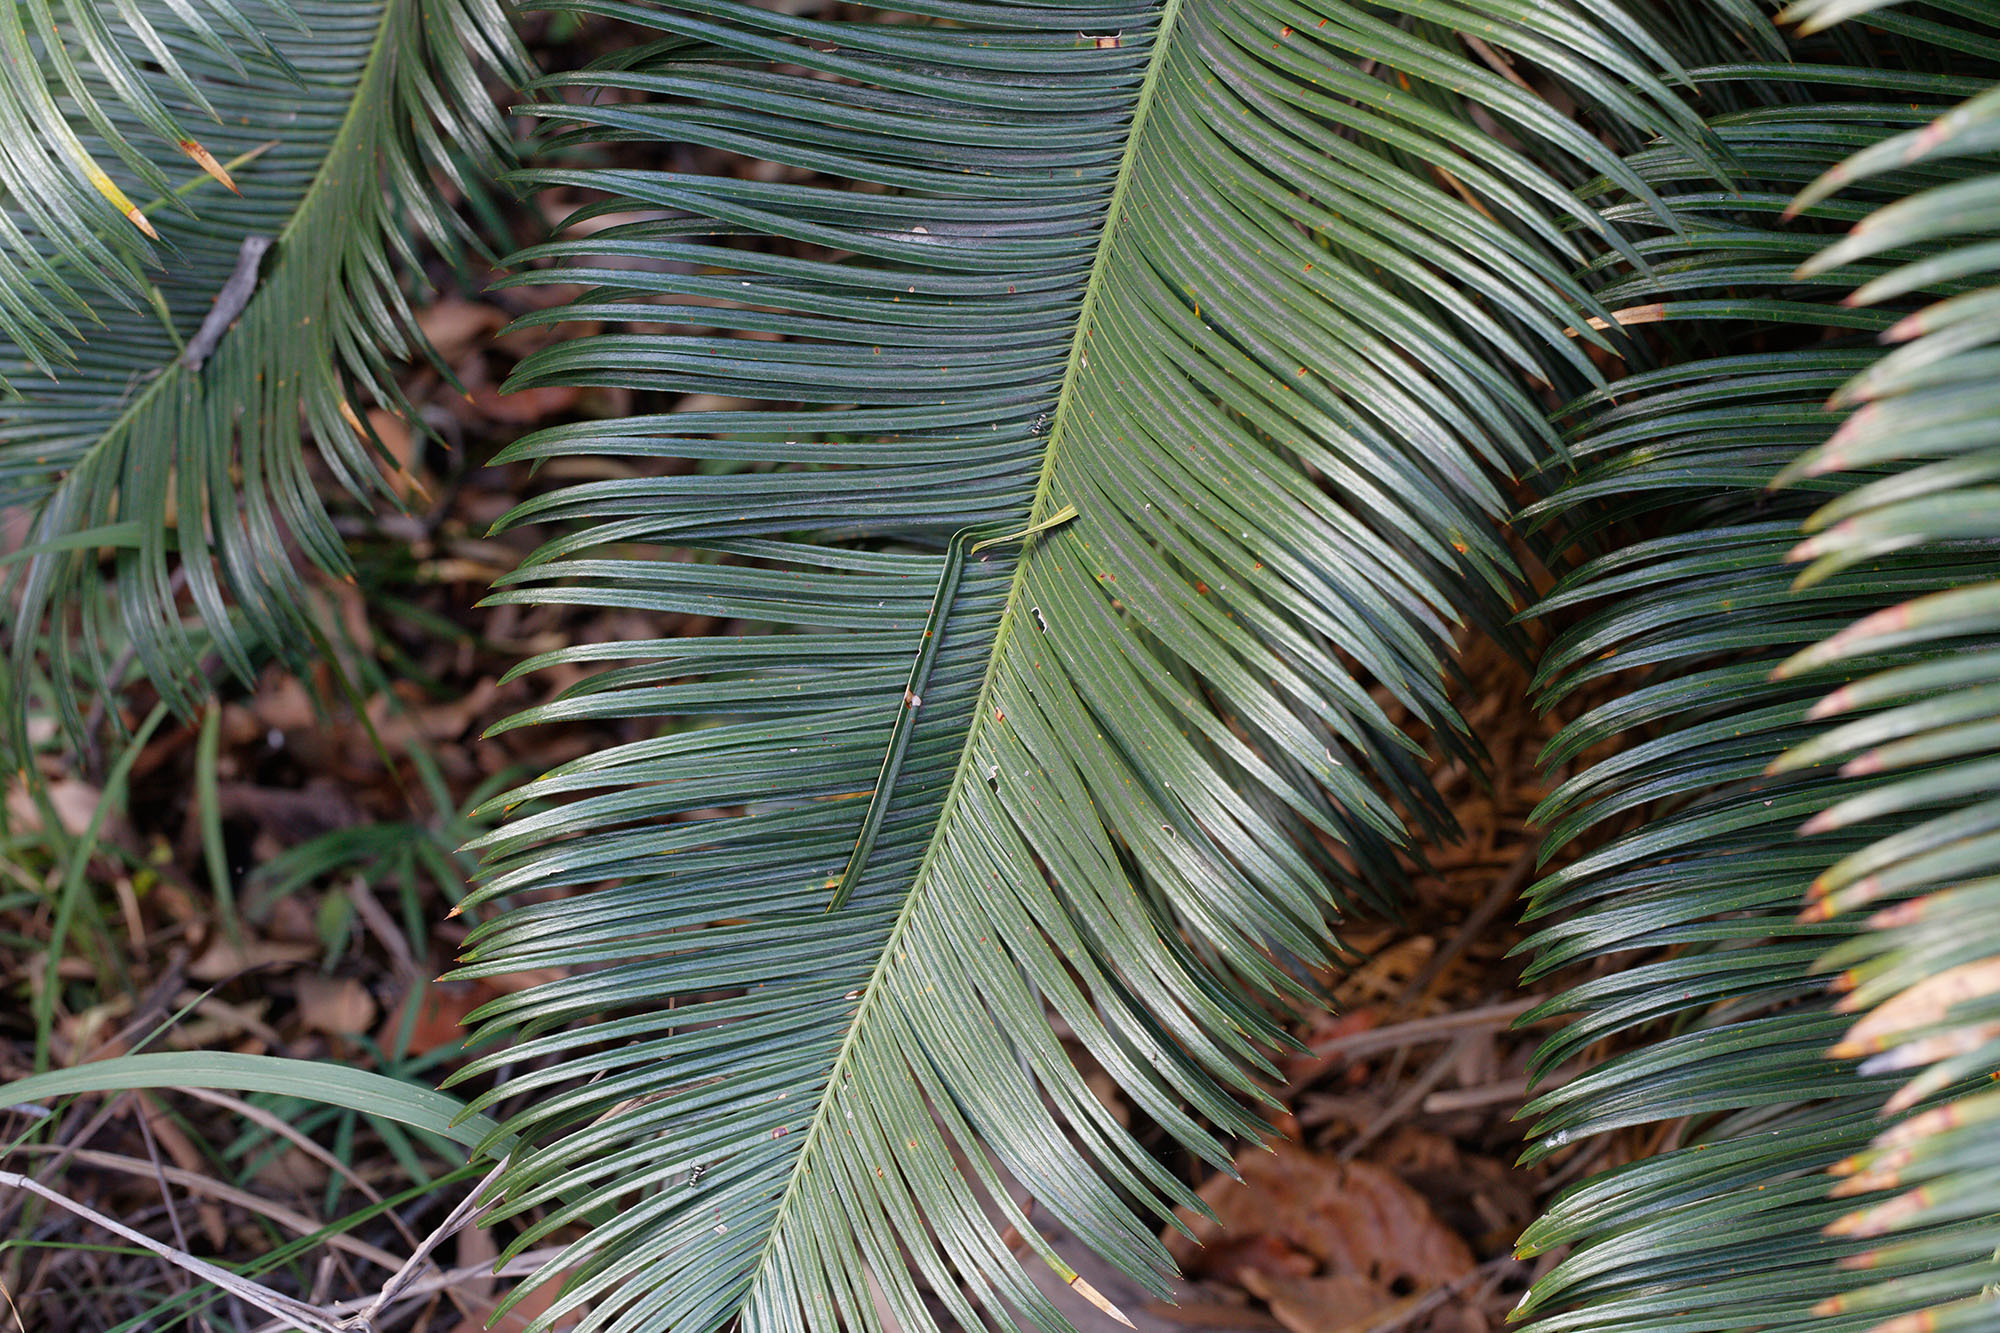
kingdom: Plantae
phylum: Tracheophyta
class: Cycadopsida
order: Cycadales
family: Cycadaceae
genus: Cycas
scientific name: Cycas media
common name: Queensland cycas
